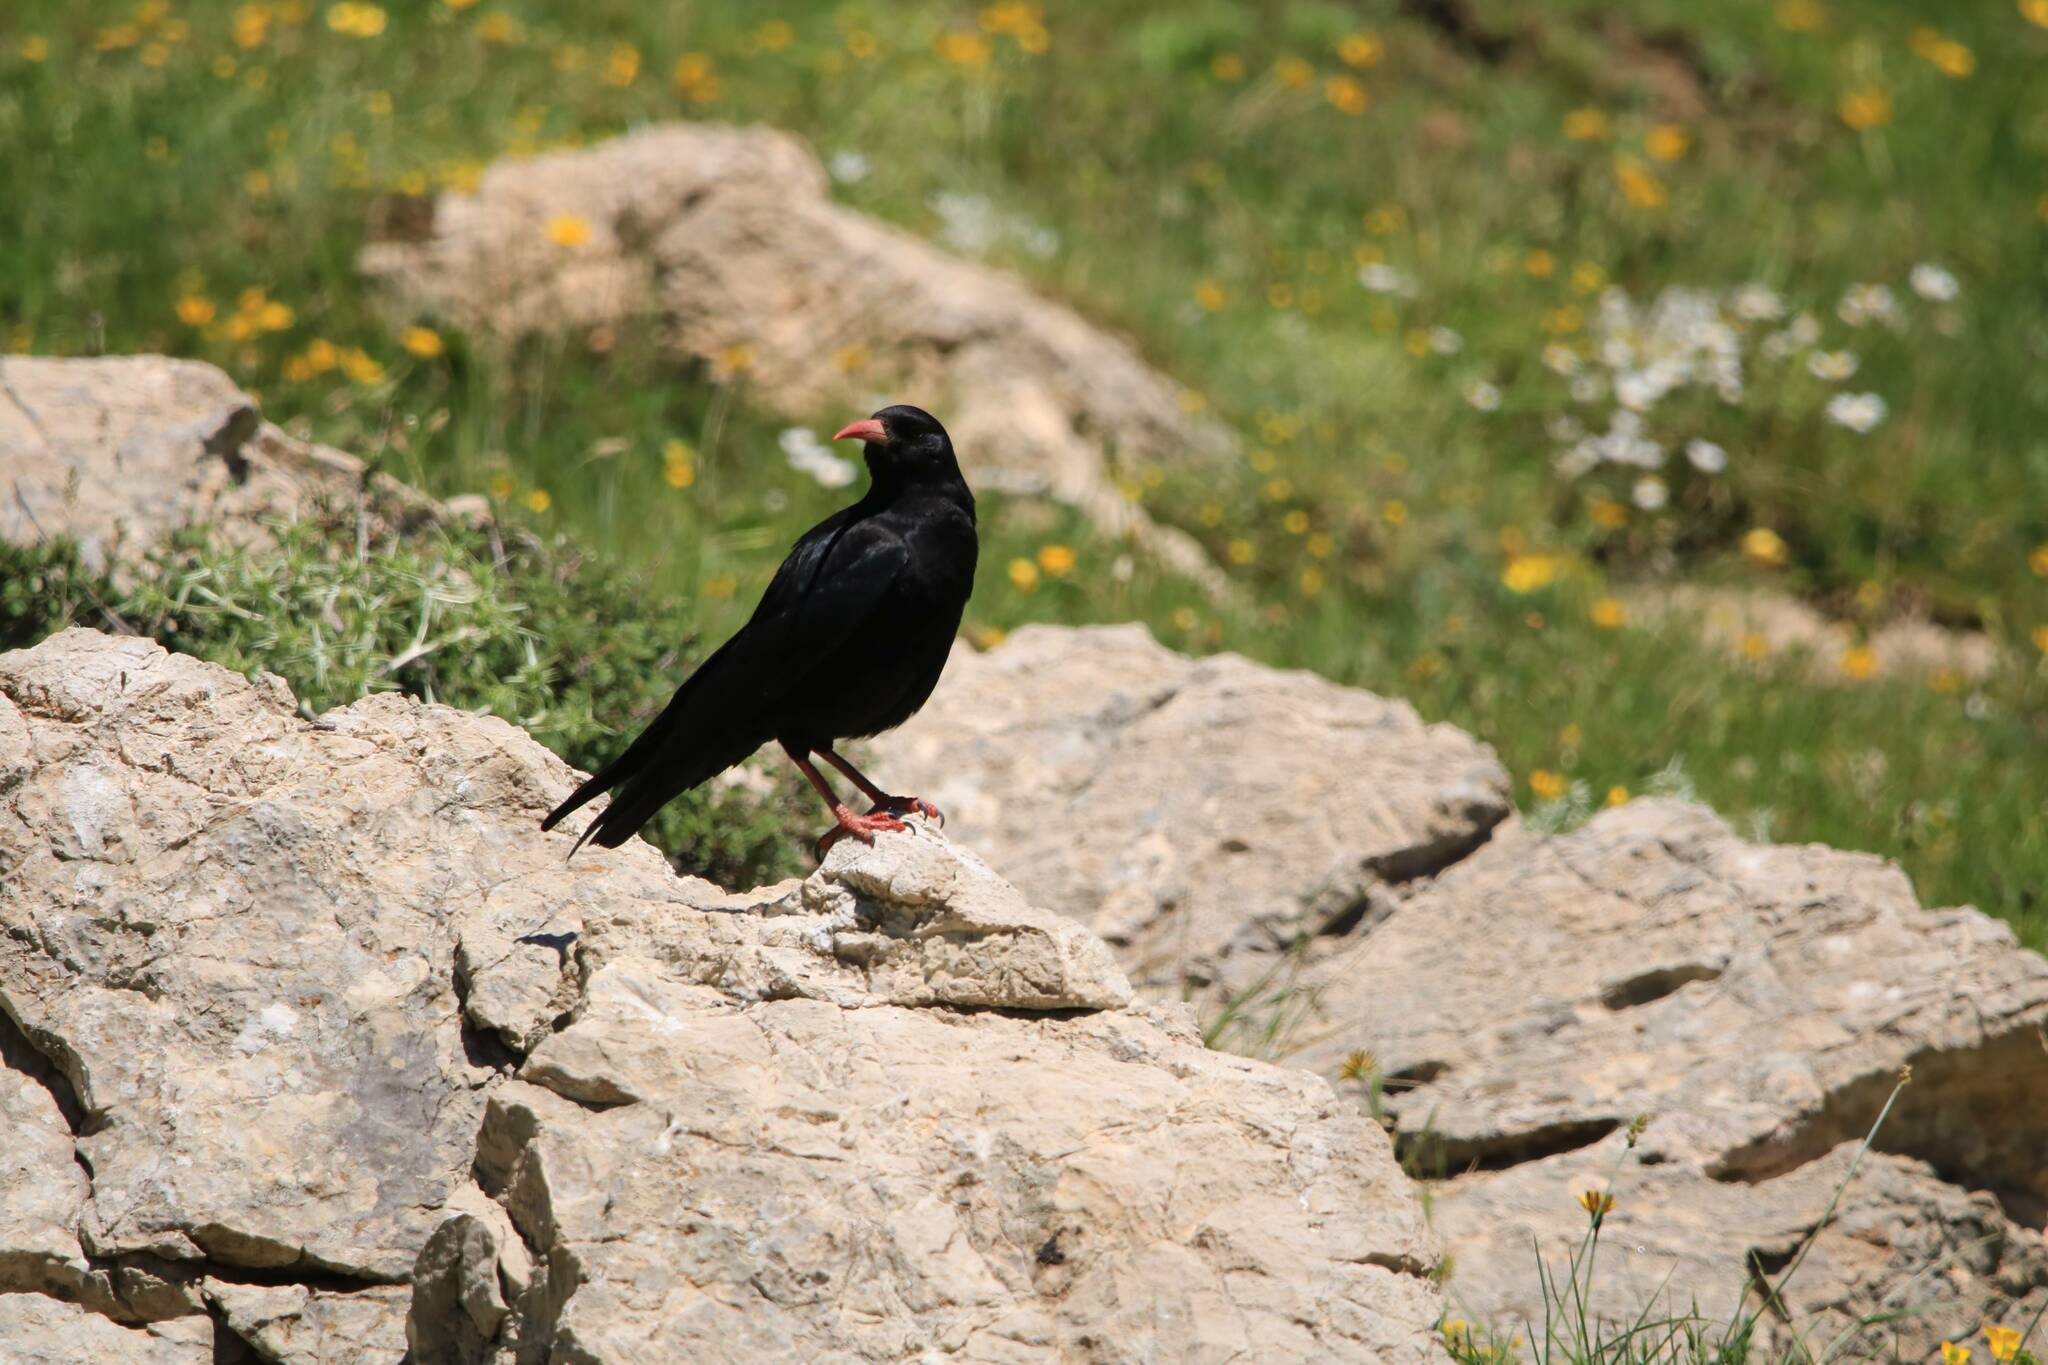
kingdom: Animalia
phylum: Chordata
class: Aves
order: Passeriformes
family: Corvidae
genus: Pyrrhocorax
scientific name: Pyrrhocorax pyrrhocorax
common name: Red-billed chough
